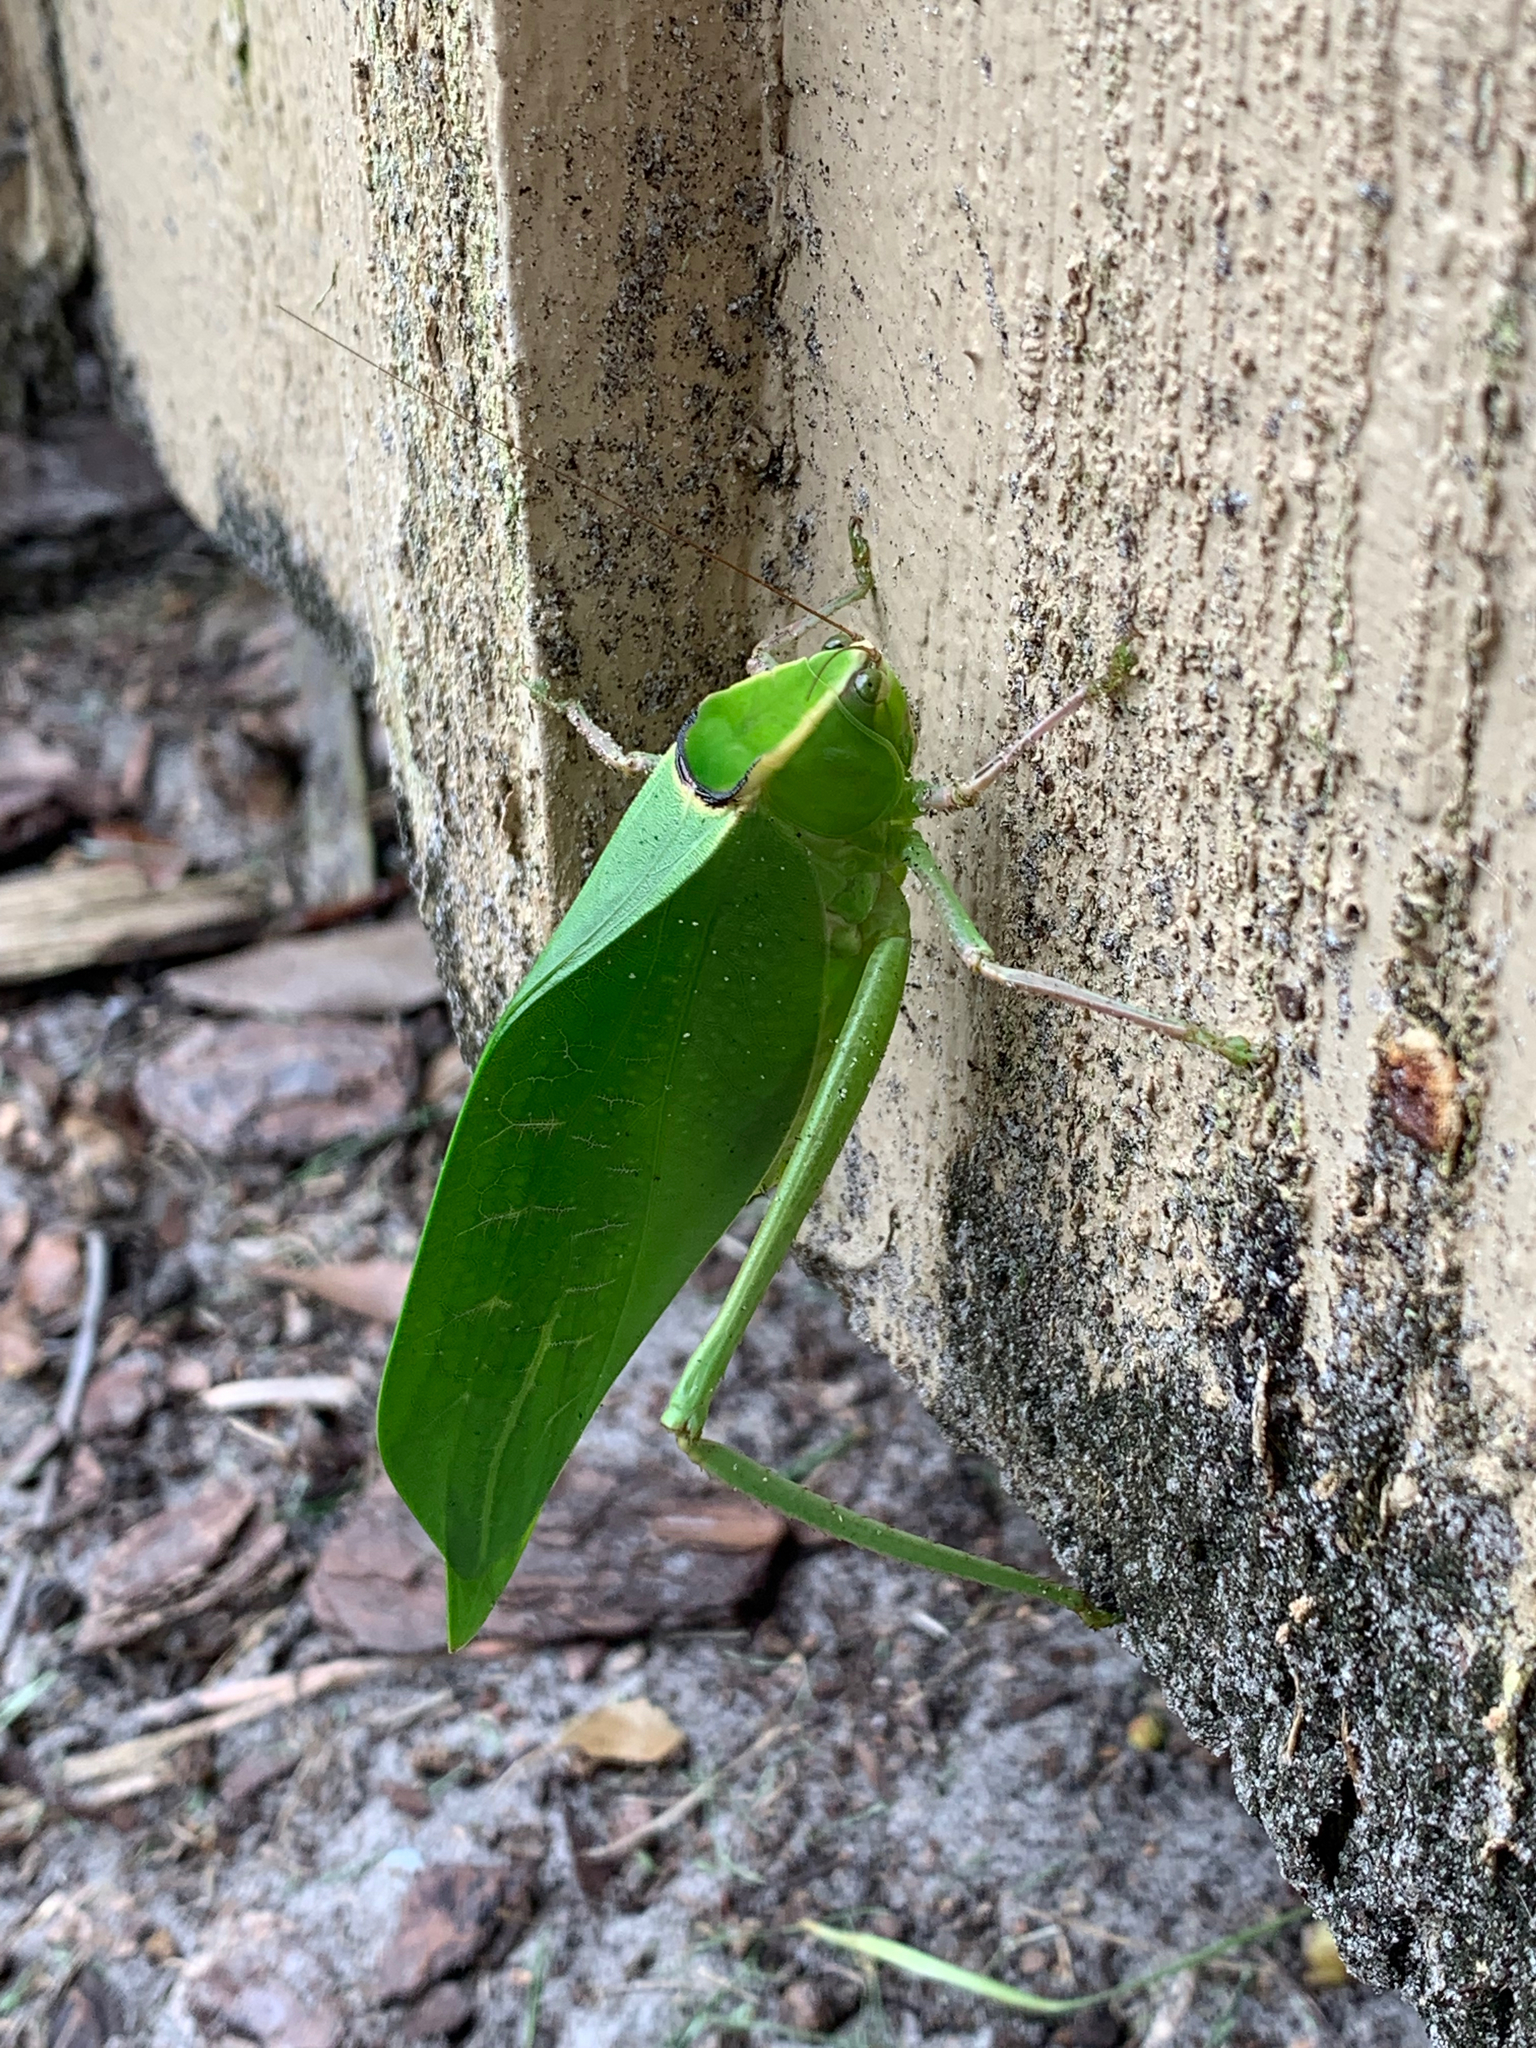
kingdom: Animalia
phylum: Arthropoda
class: Insecta
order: Orthoptera
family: Tettigoniidae
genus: Stilpnochlora
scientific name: Stilpnochlora couloniana
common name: Giant katydid
